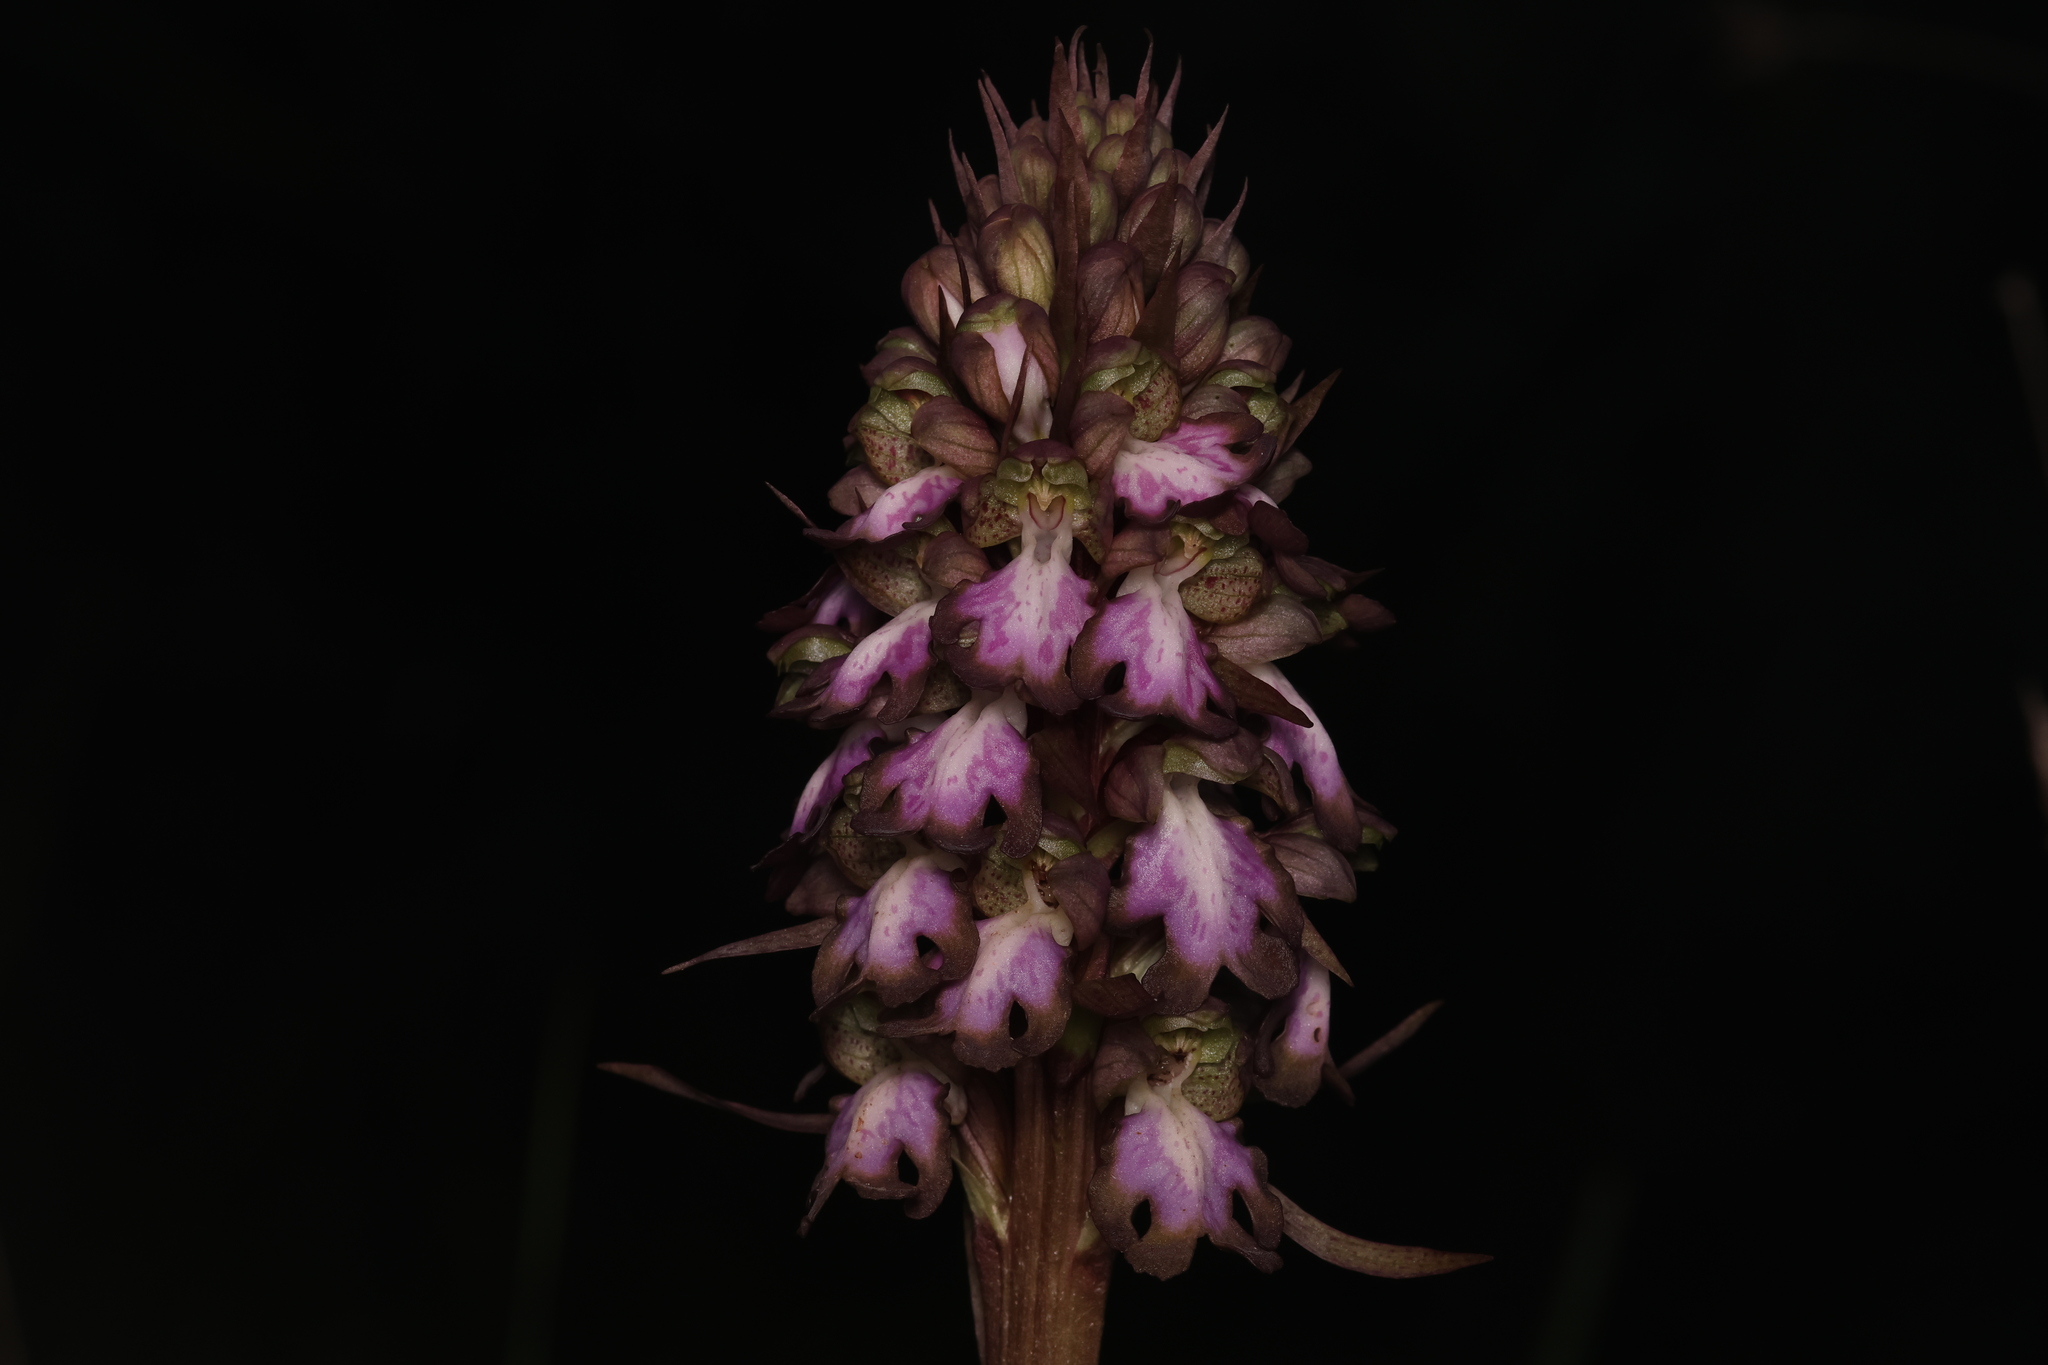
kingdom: Plantae
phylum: Tracheophyta
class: Liliopsida
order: Asparagales
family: Orchidaceae
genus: Himantoglossum
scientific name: Himantoglossum robertianum
